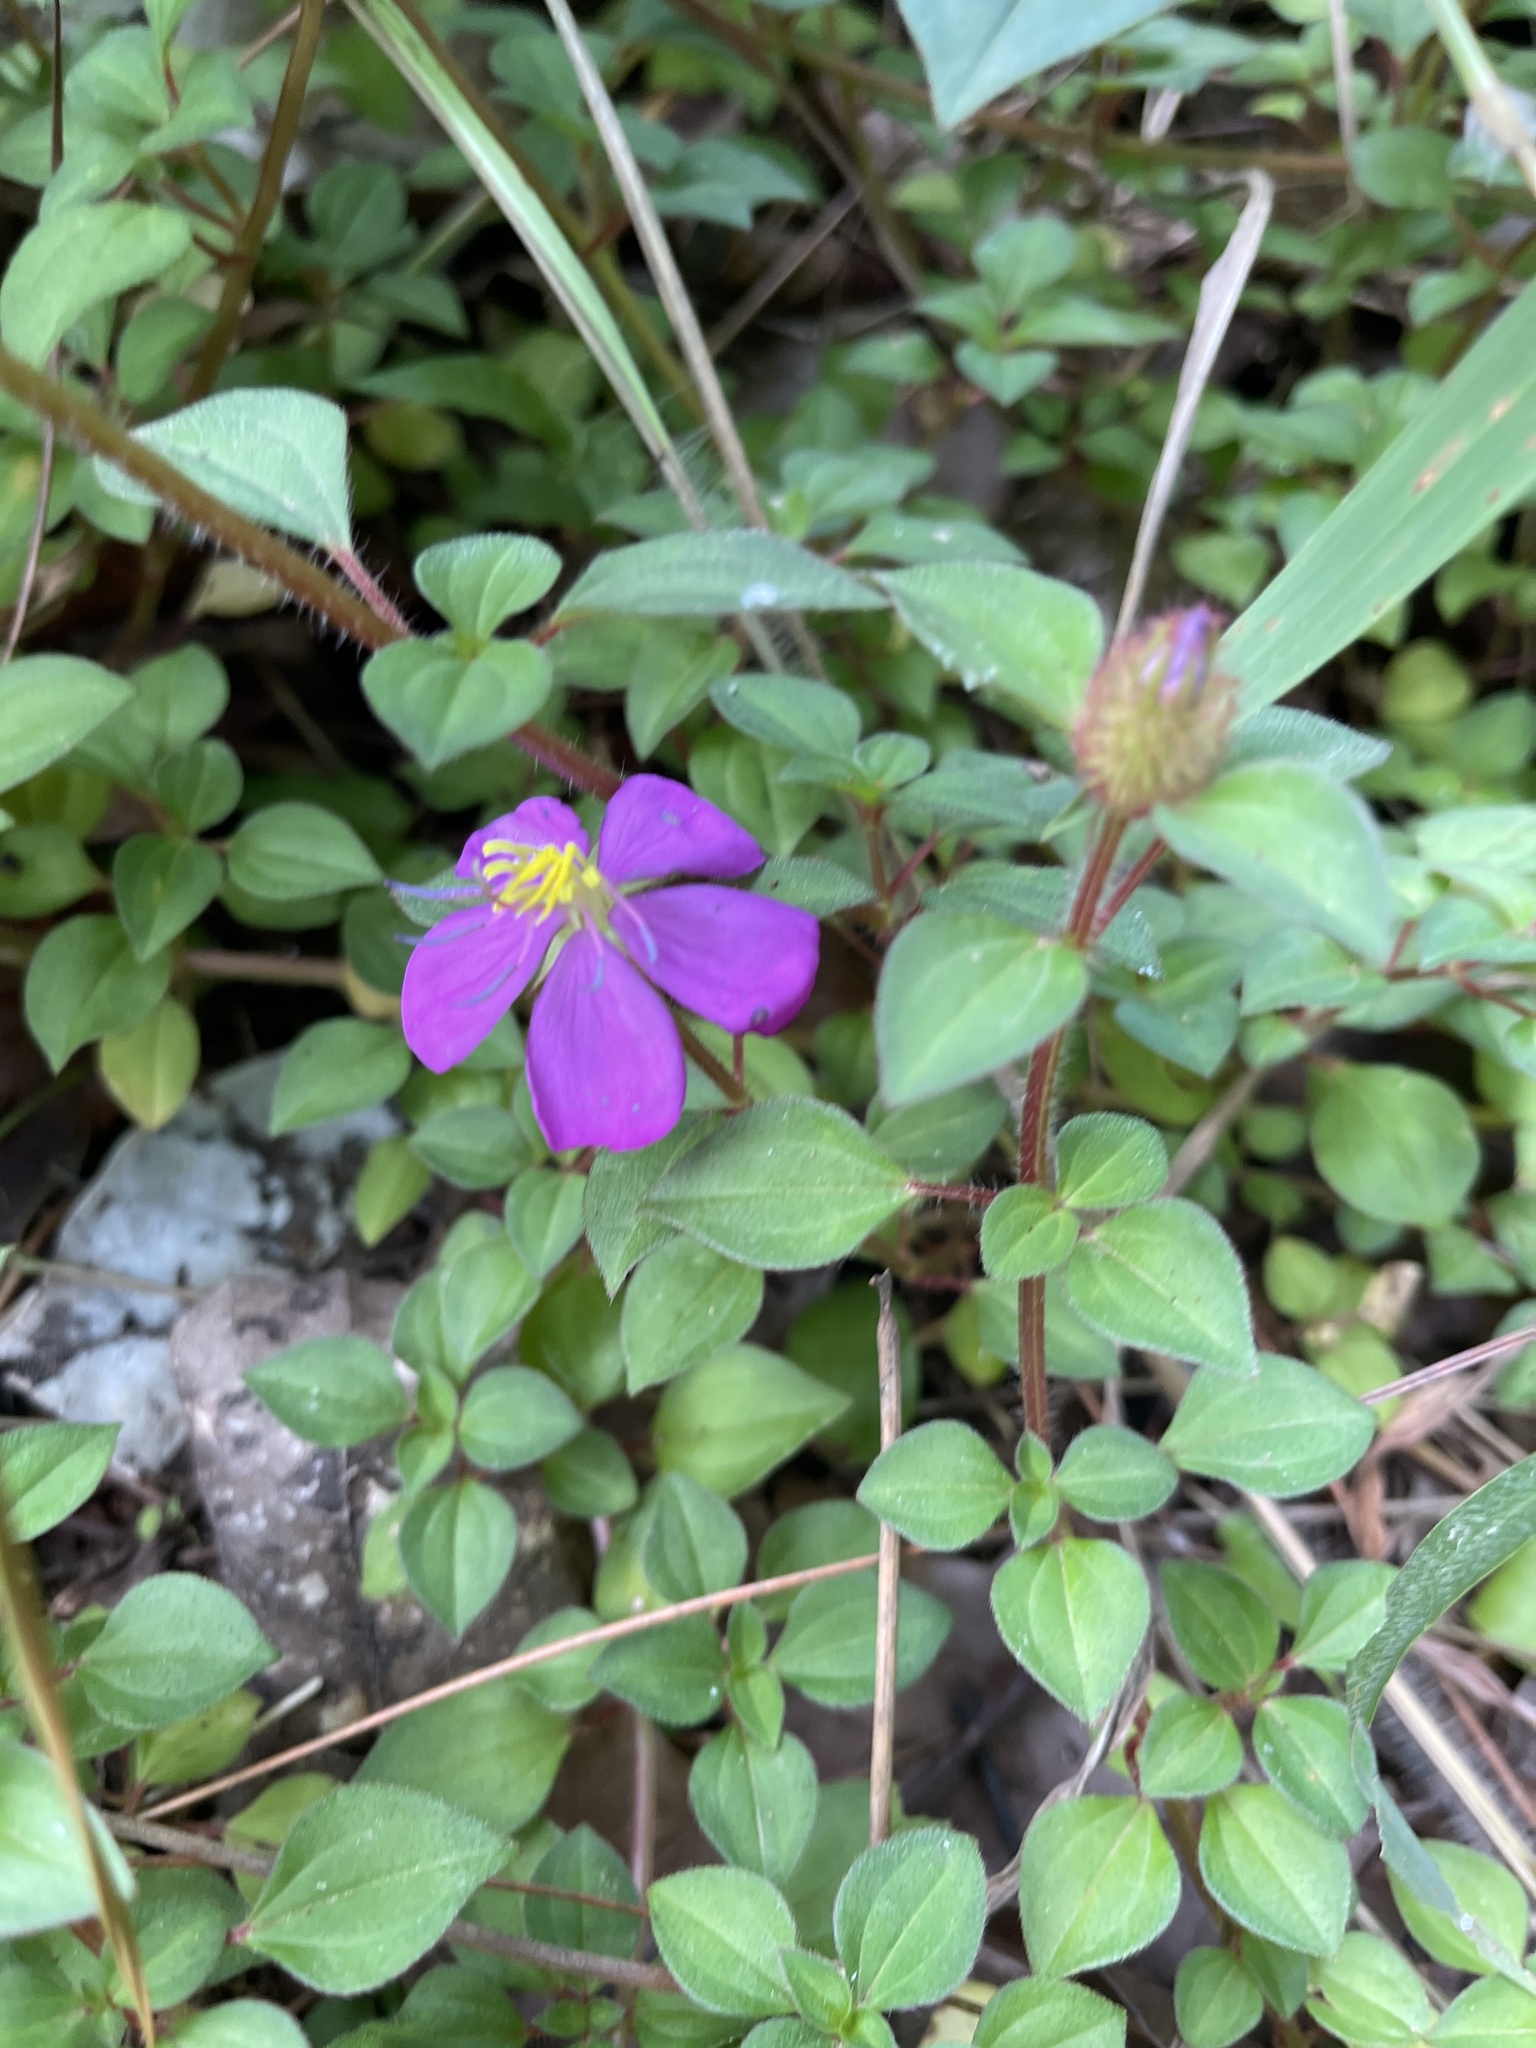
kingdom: Plantae
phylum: Tracheophyta
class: Magnoliopsida
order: Myrtales
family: Melastomataceae
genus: Heterotis
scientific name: Heterotis rotundifolia
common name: Pinklady
